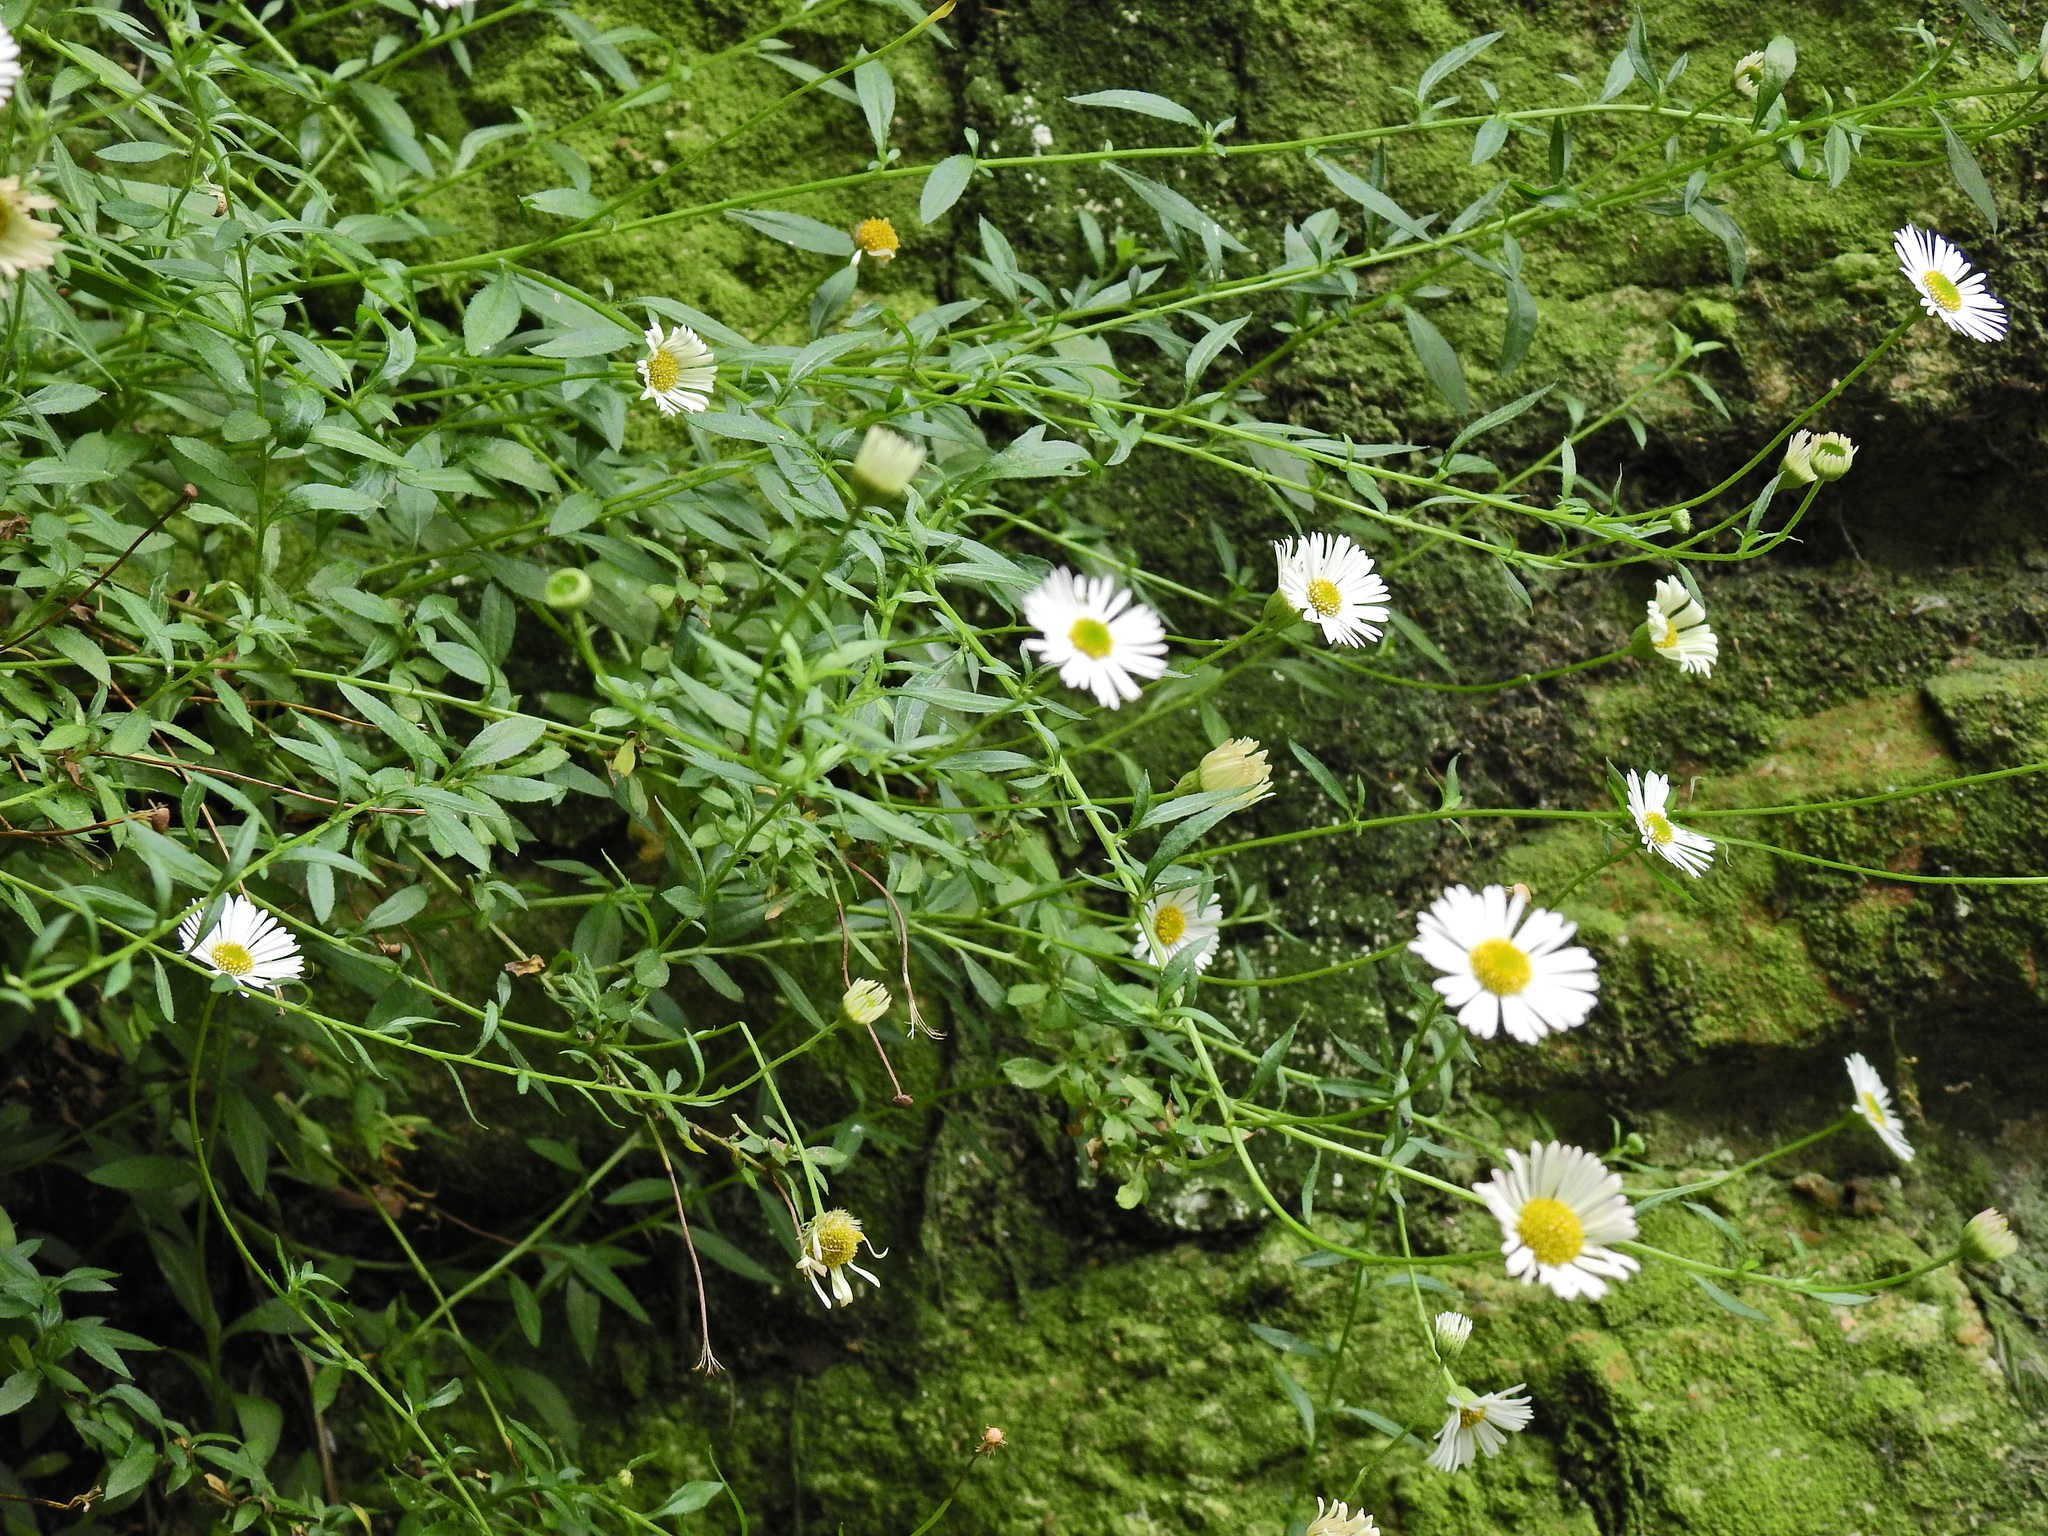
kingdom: Plantae
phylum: Tracheophyta
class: Magnoliopsida
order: Asterales
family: Asteraceae
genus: Erigeron
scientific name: Erigeron karvinskianus
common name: Mexican fleabane
